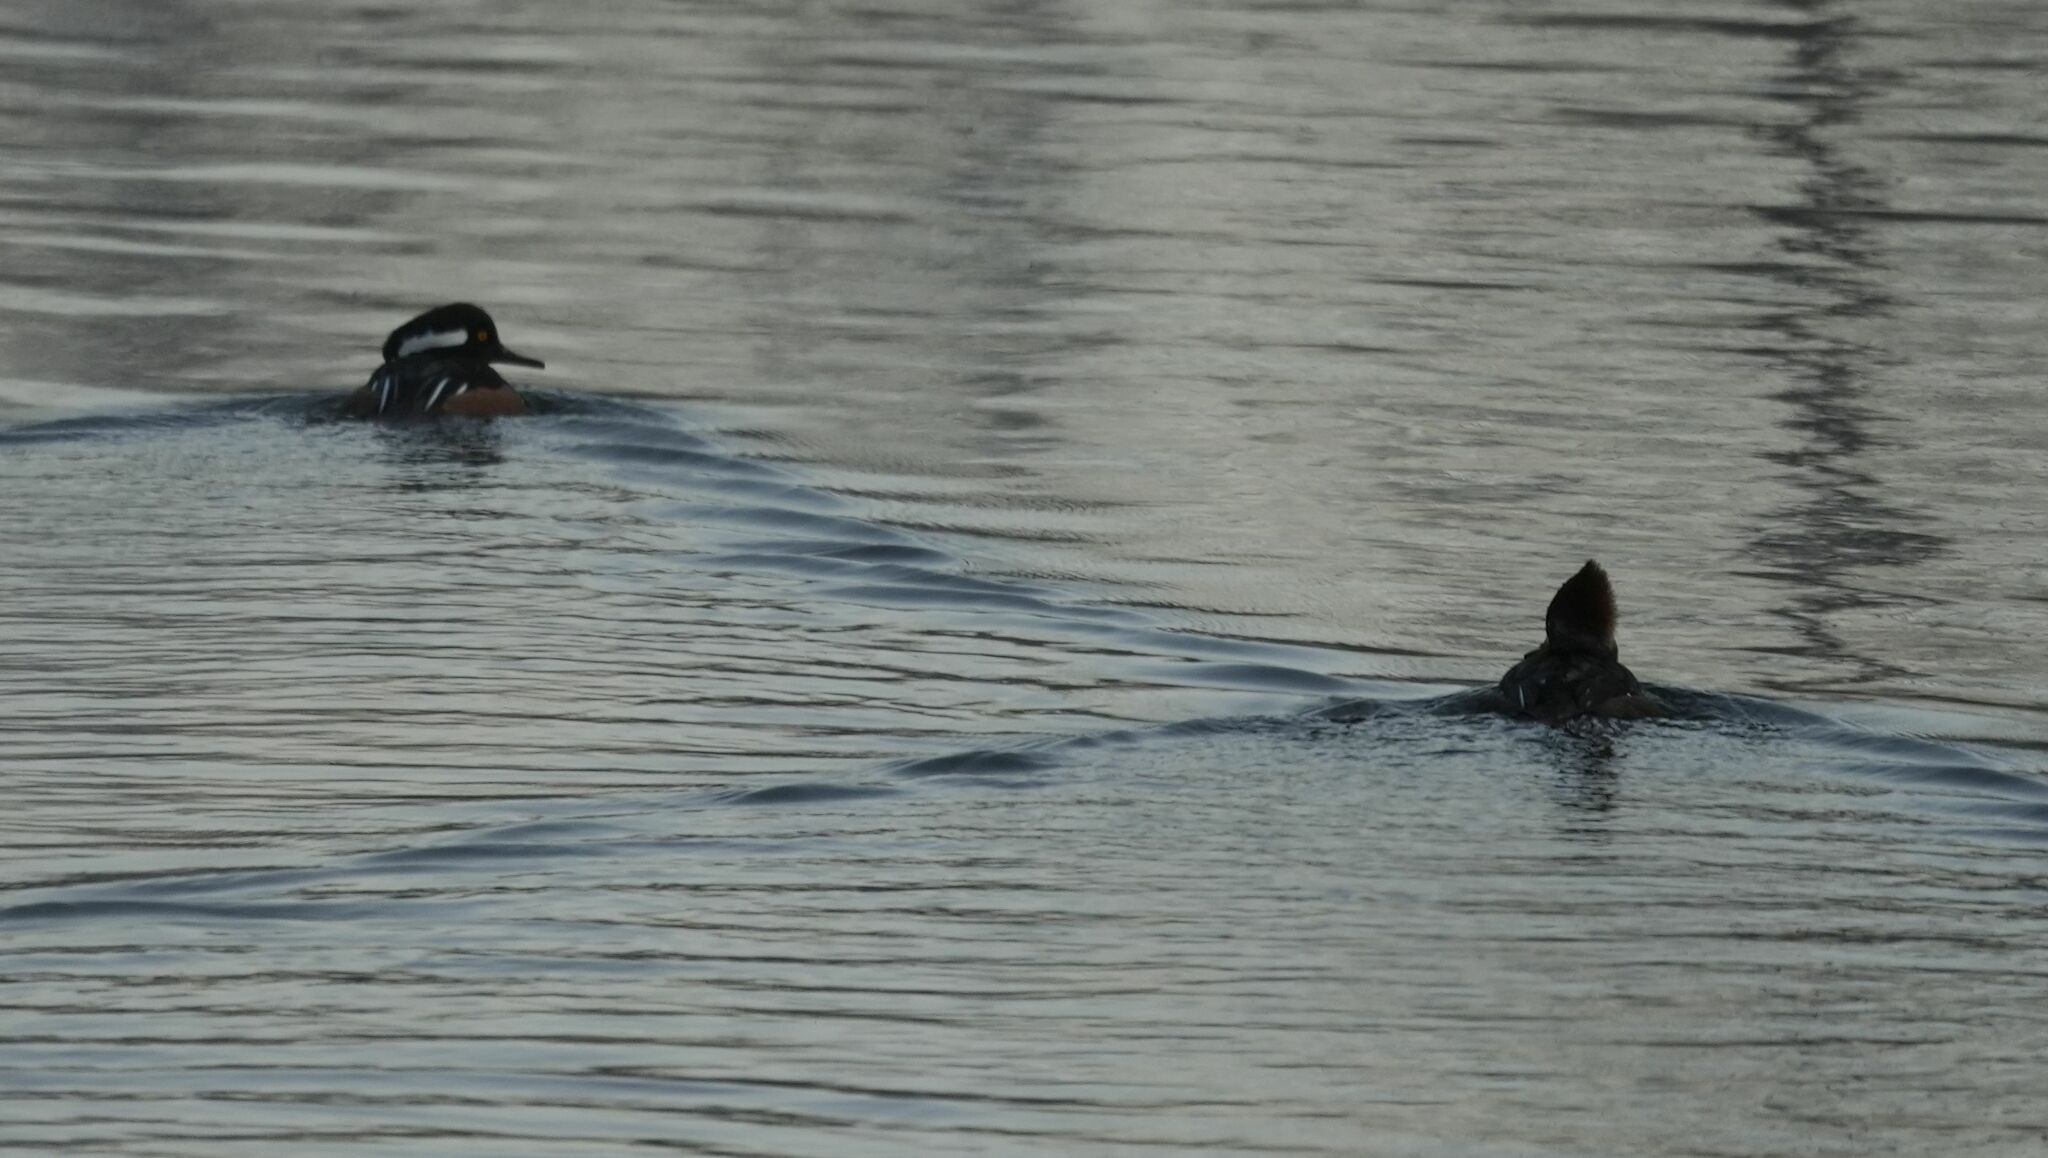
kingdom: Animalia
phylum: Chordata
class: Aves
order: Anseriformes
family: Anatidae
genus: Lophodytes
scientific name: Lophodytes cucullatus
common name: Hooded merganser
